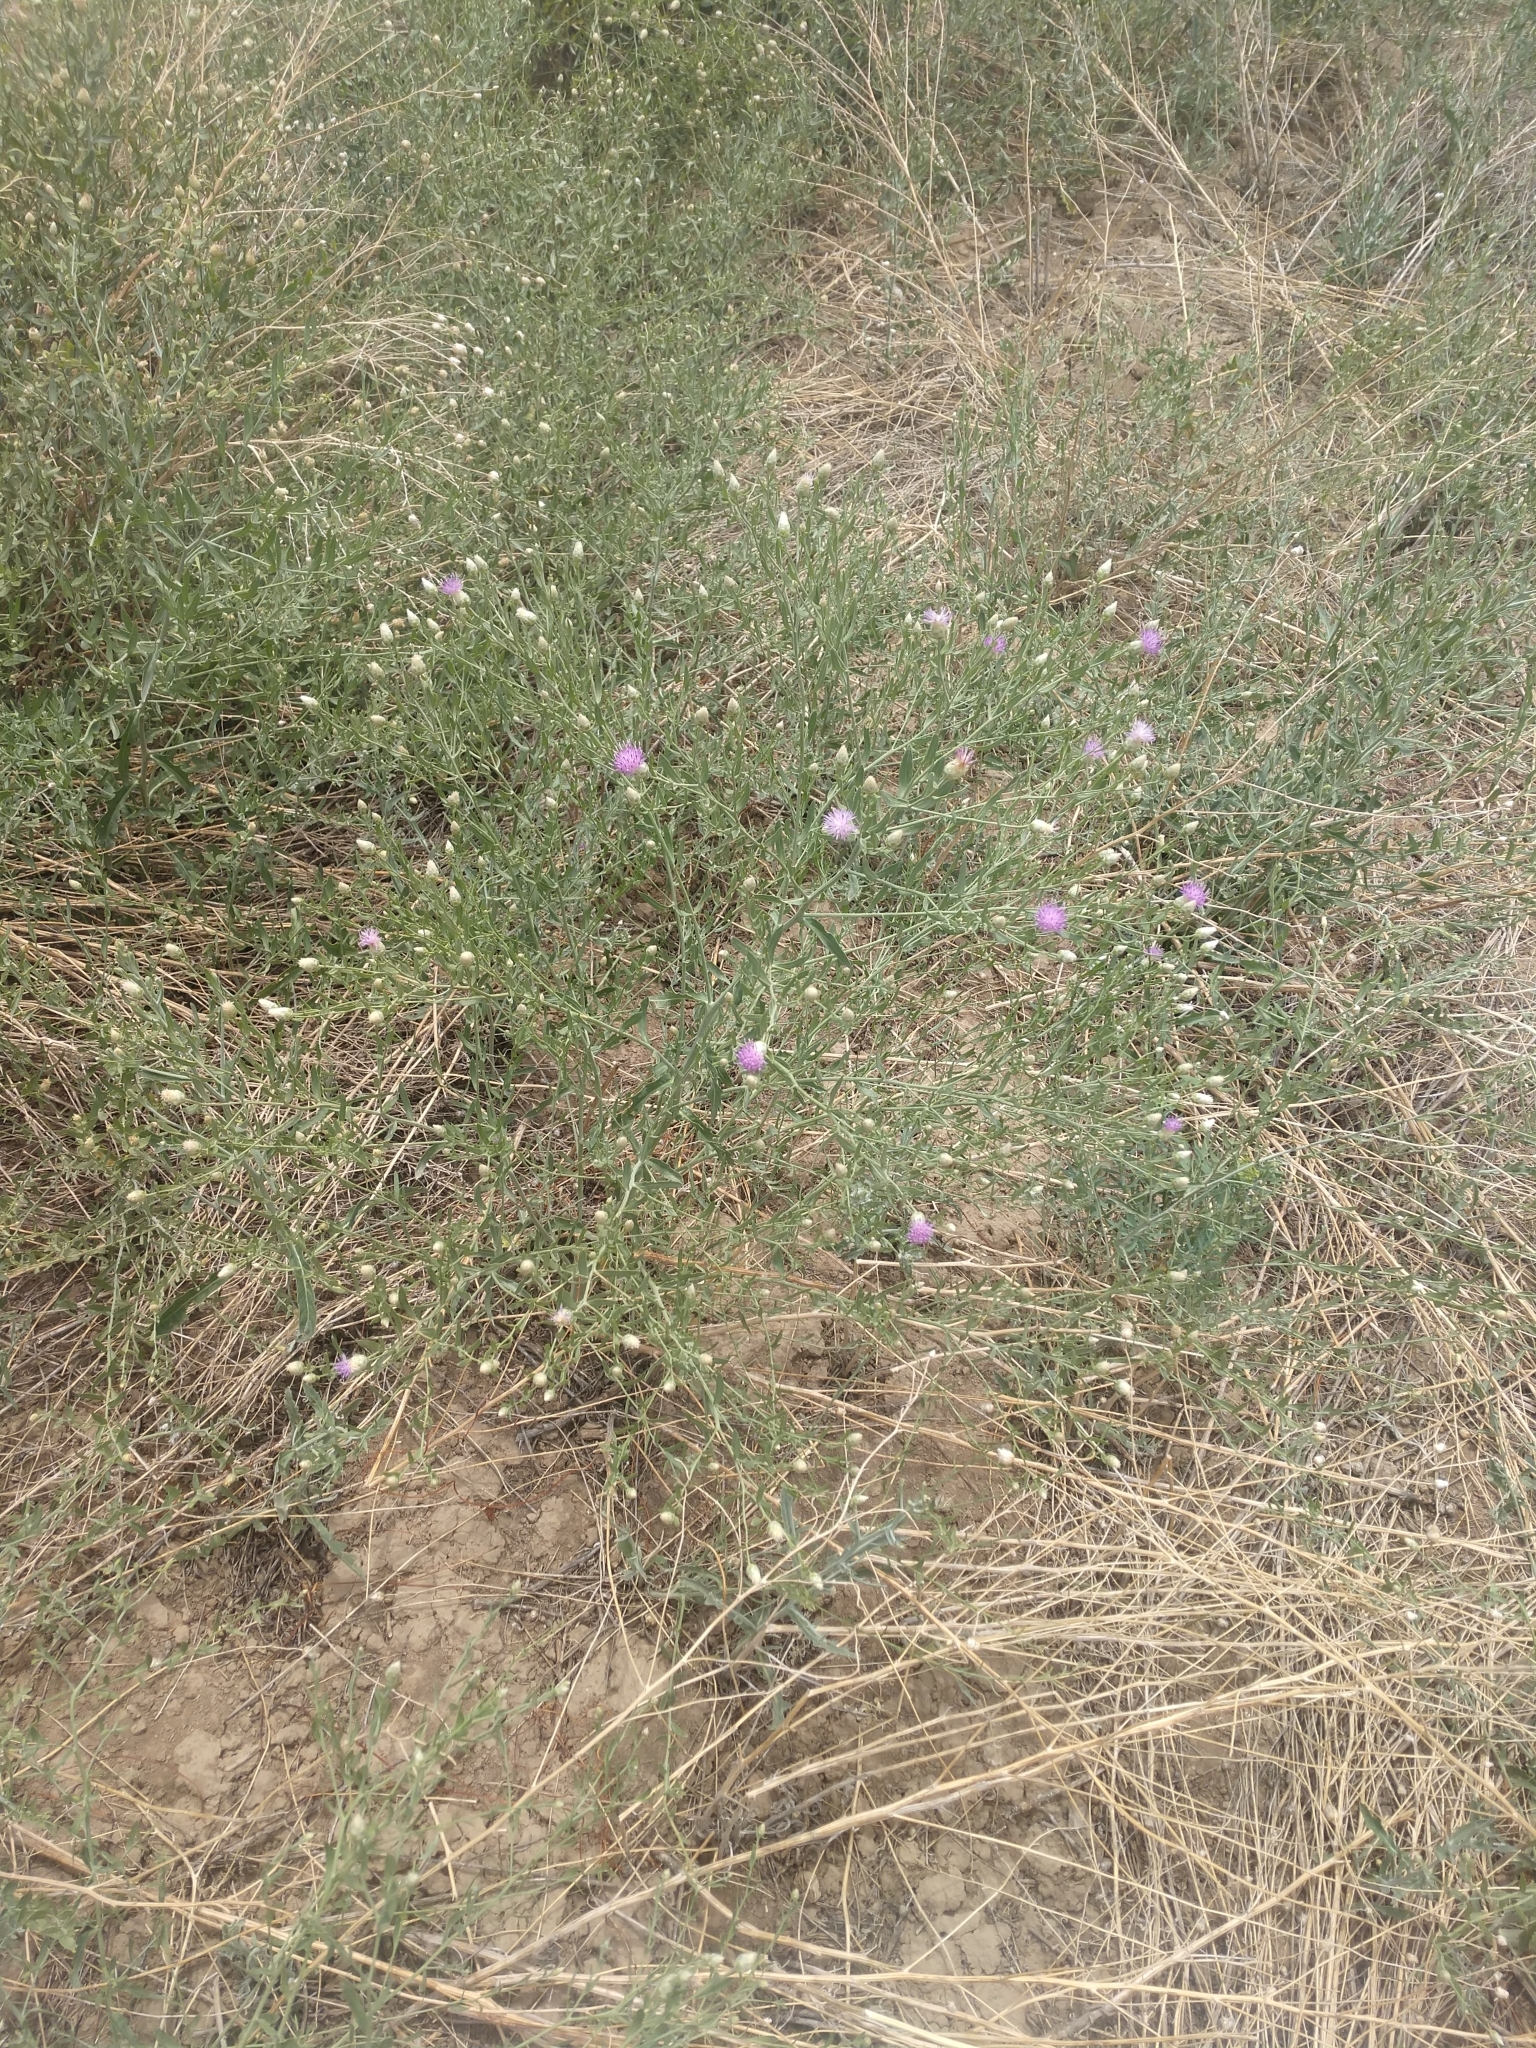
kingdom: Plantae
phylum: Tracheophyta
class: Magnoliopsida
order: Asterales
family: Asteraceae
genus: Leuzea
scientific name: Leuzea repens
